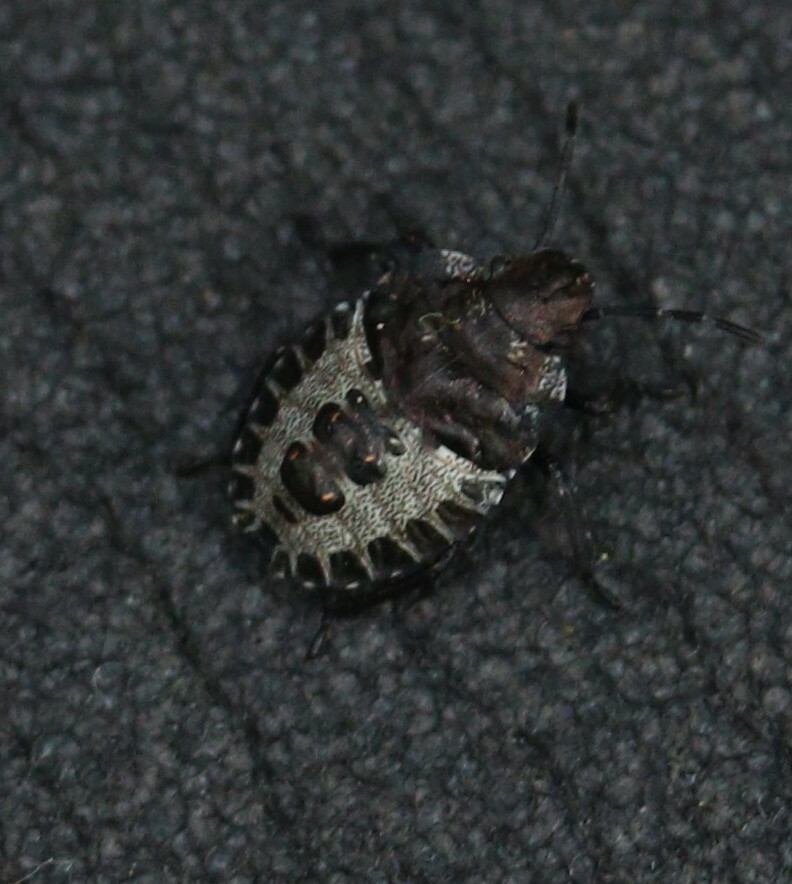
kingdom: Animalia
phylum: Arthropoda
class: Insecta
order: Hemiptera
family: Pentatomidae
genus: Pentatoma
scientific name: Pentatoma rufipes
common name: Forest bug
